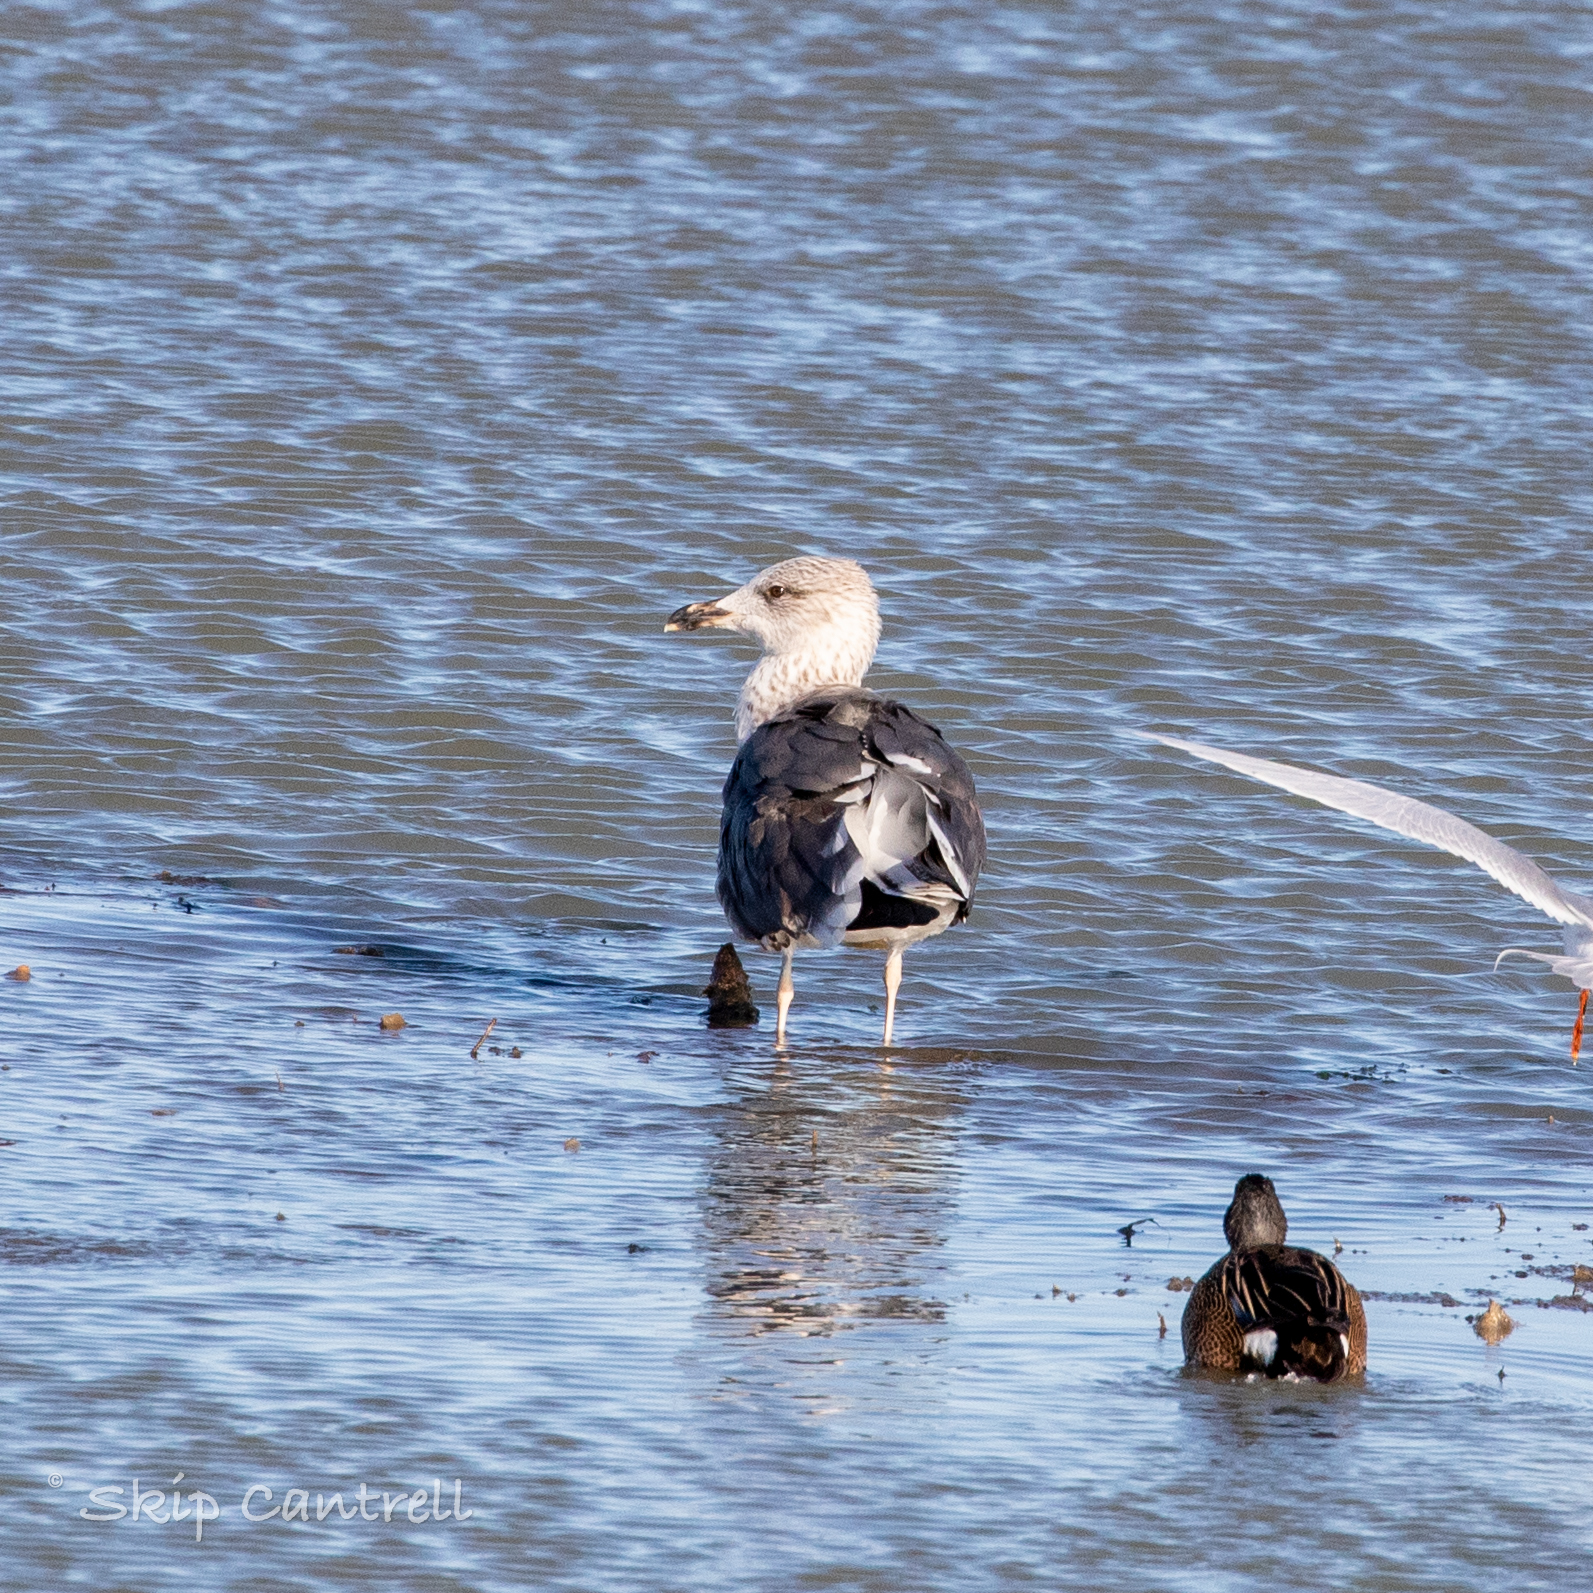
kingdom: Animalia
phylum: Chordata
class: Aves
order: Charadriiformes
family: Laridae
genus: Larus
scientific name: Larus fuscus
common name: Lesser black-backed gull
